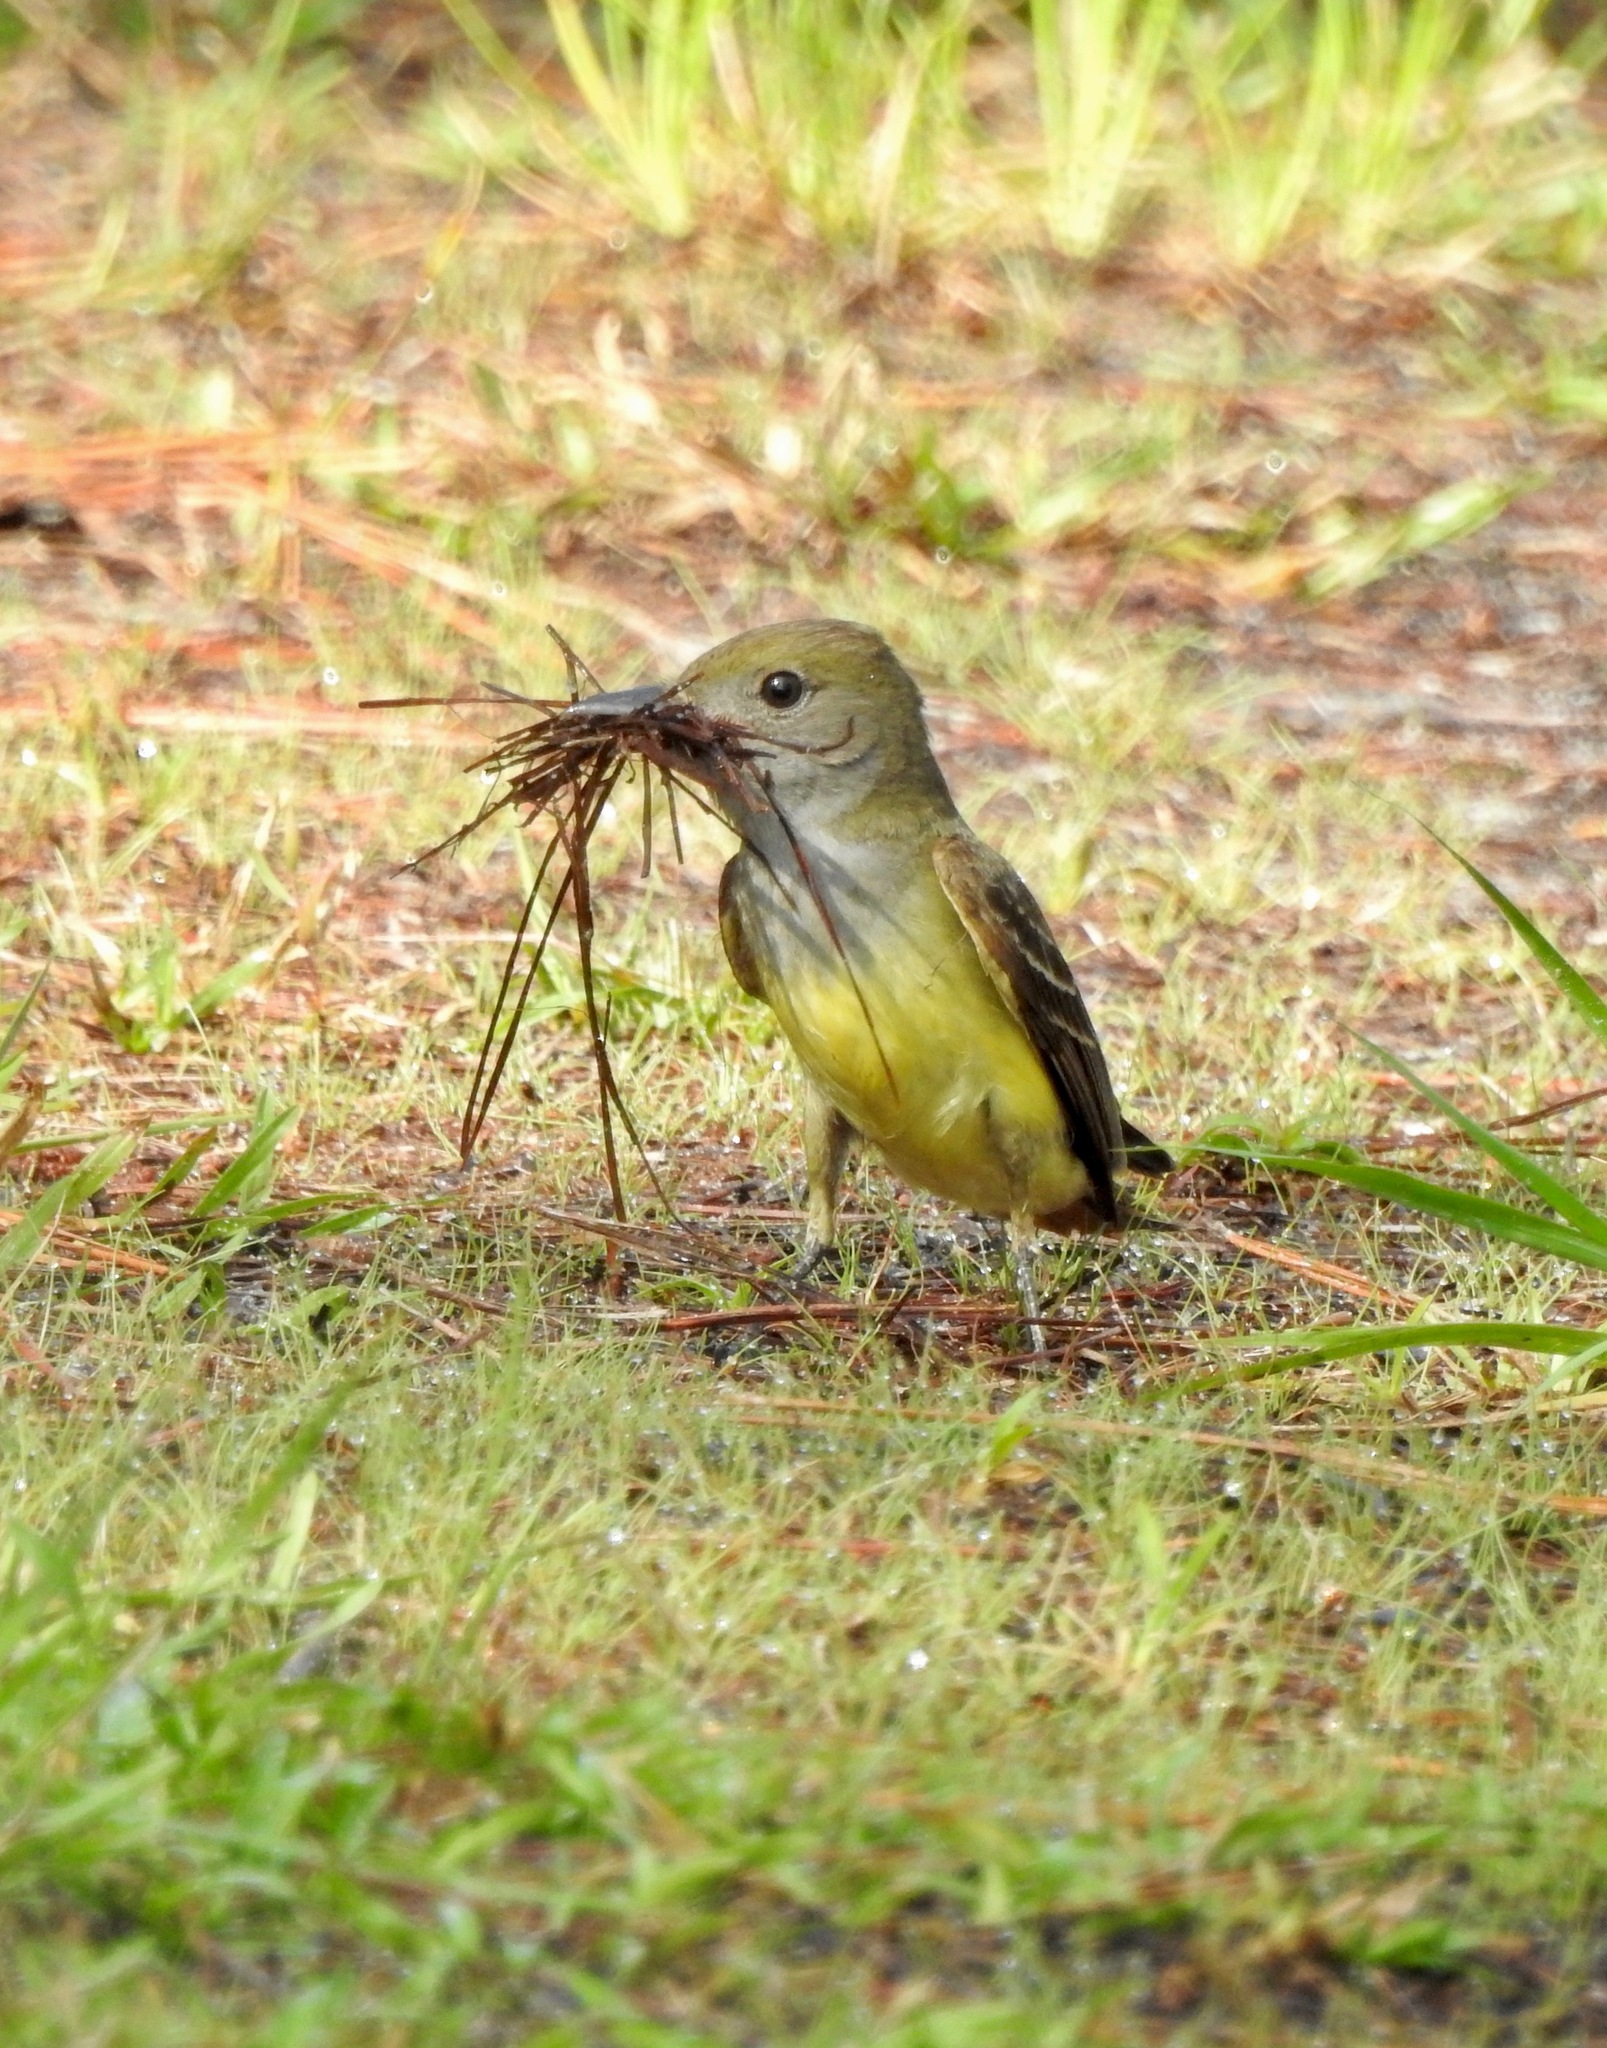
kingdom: Animalia
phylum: Chordata
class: Aves
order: Passeriformes
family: Tyrannidae
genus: Myiarchus
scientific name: Myiarchus crinitus
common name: Great crested flycatcher
